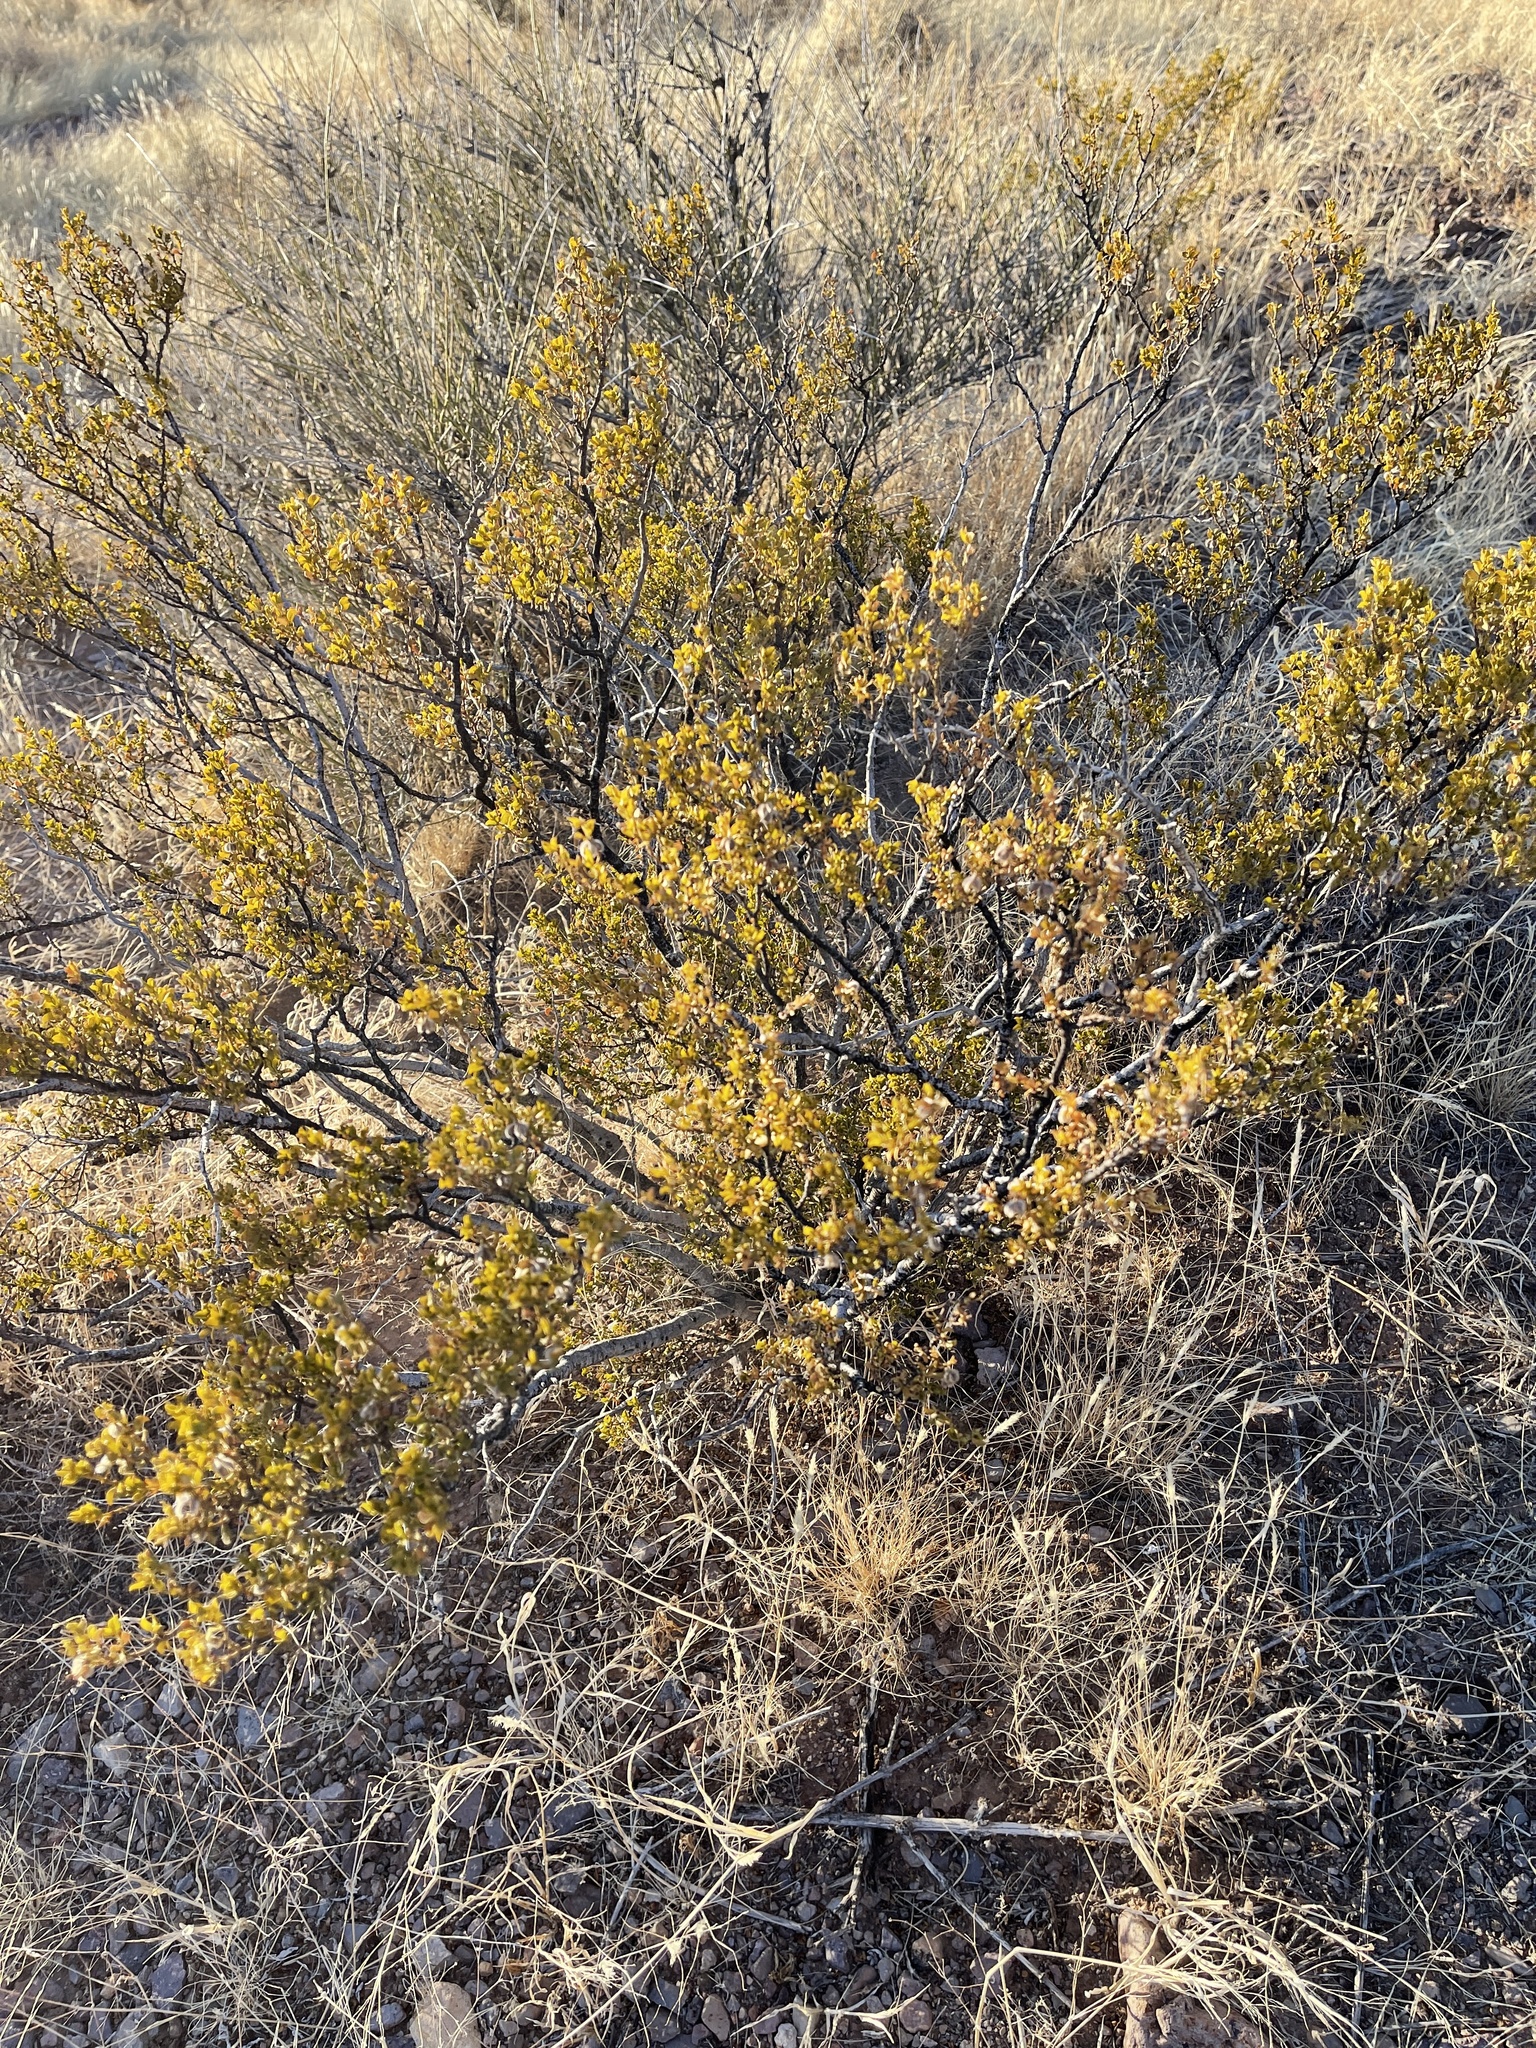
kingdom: Plantae
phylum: Tracheophyta
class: Magnoliopsida
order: Zygophyllales
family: Zygophyllaceae
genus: Larrea
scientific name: Larrea tridentata
